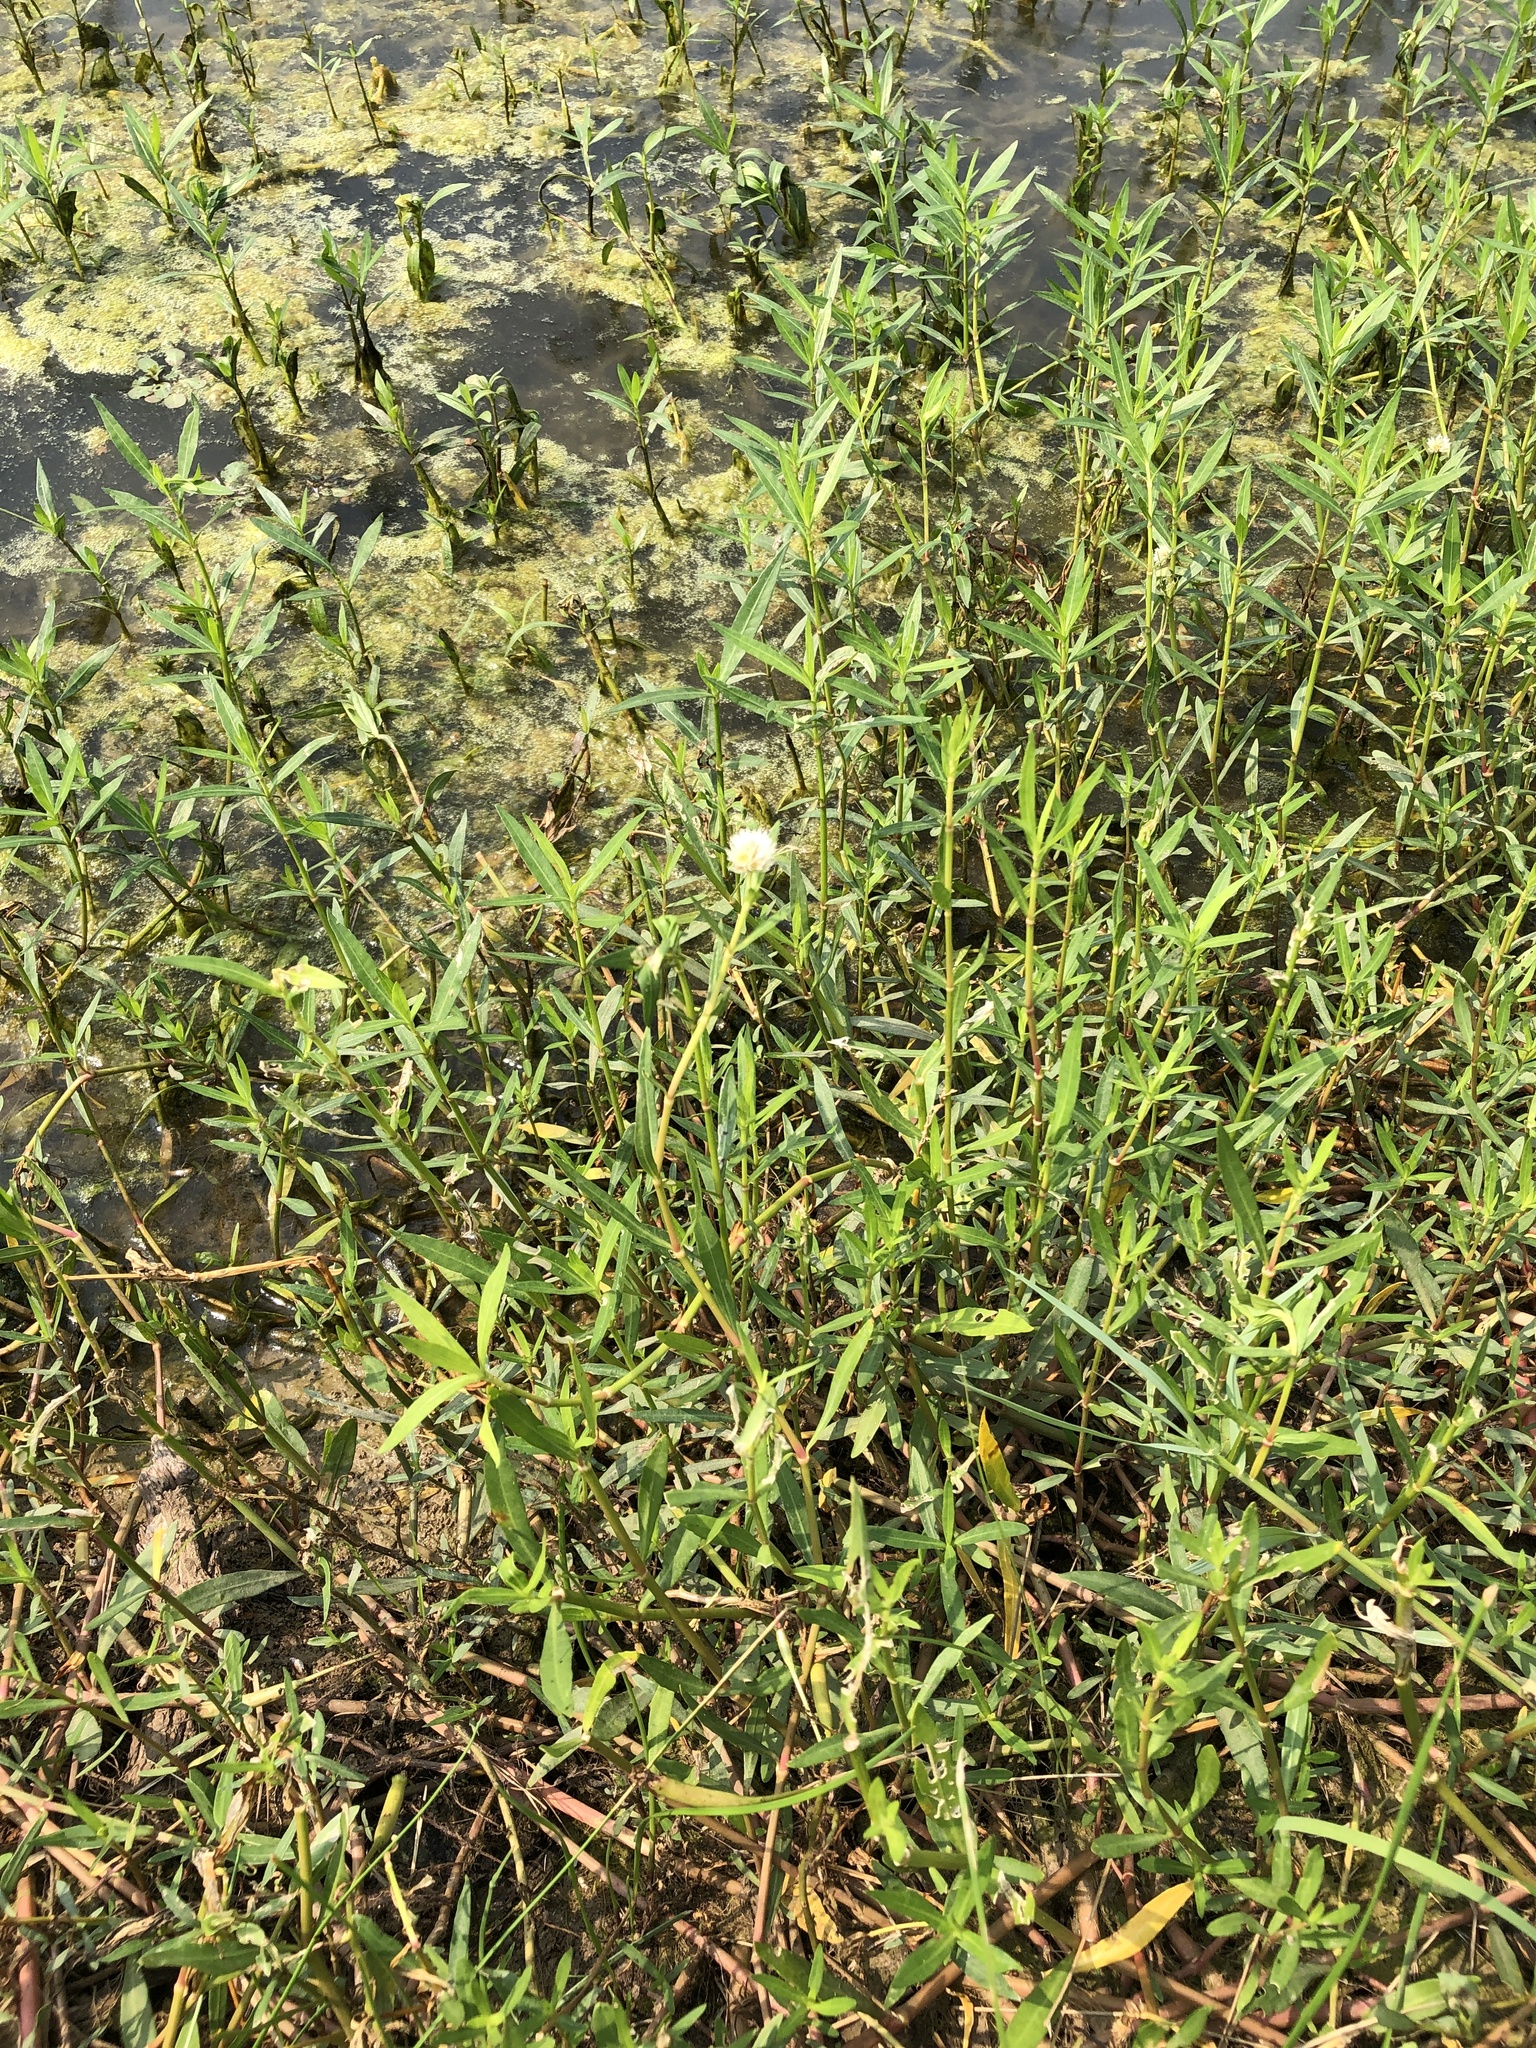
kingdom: Plantae
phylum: Tracheophyta
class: Magnoliopsida
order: Caryophyllales
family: Amaranthaceae
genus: Alternanthera
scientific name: Alternanthera philoxeroides
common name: Alligatorweed
